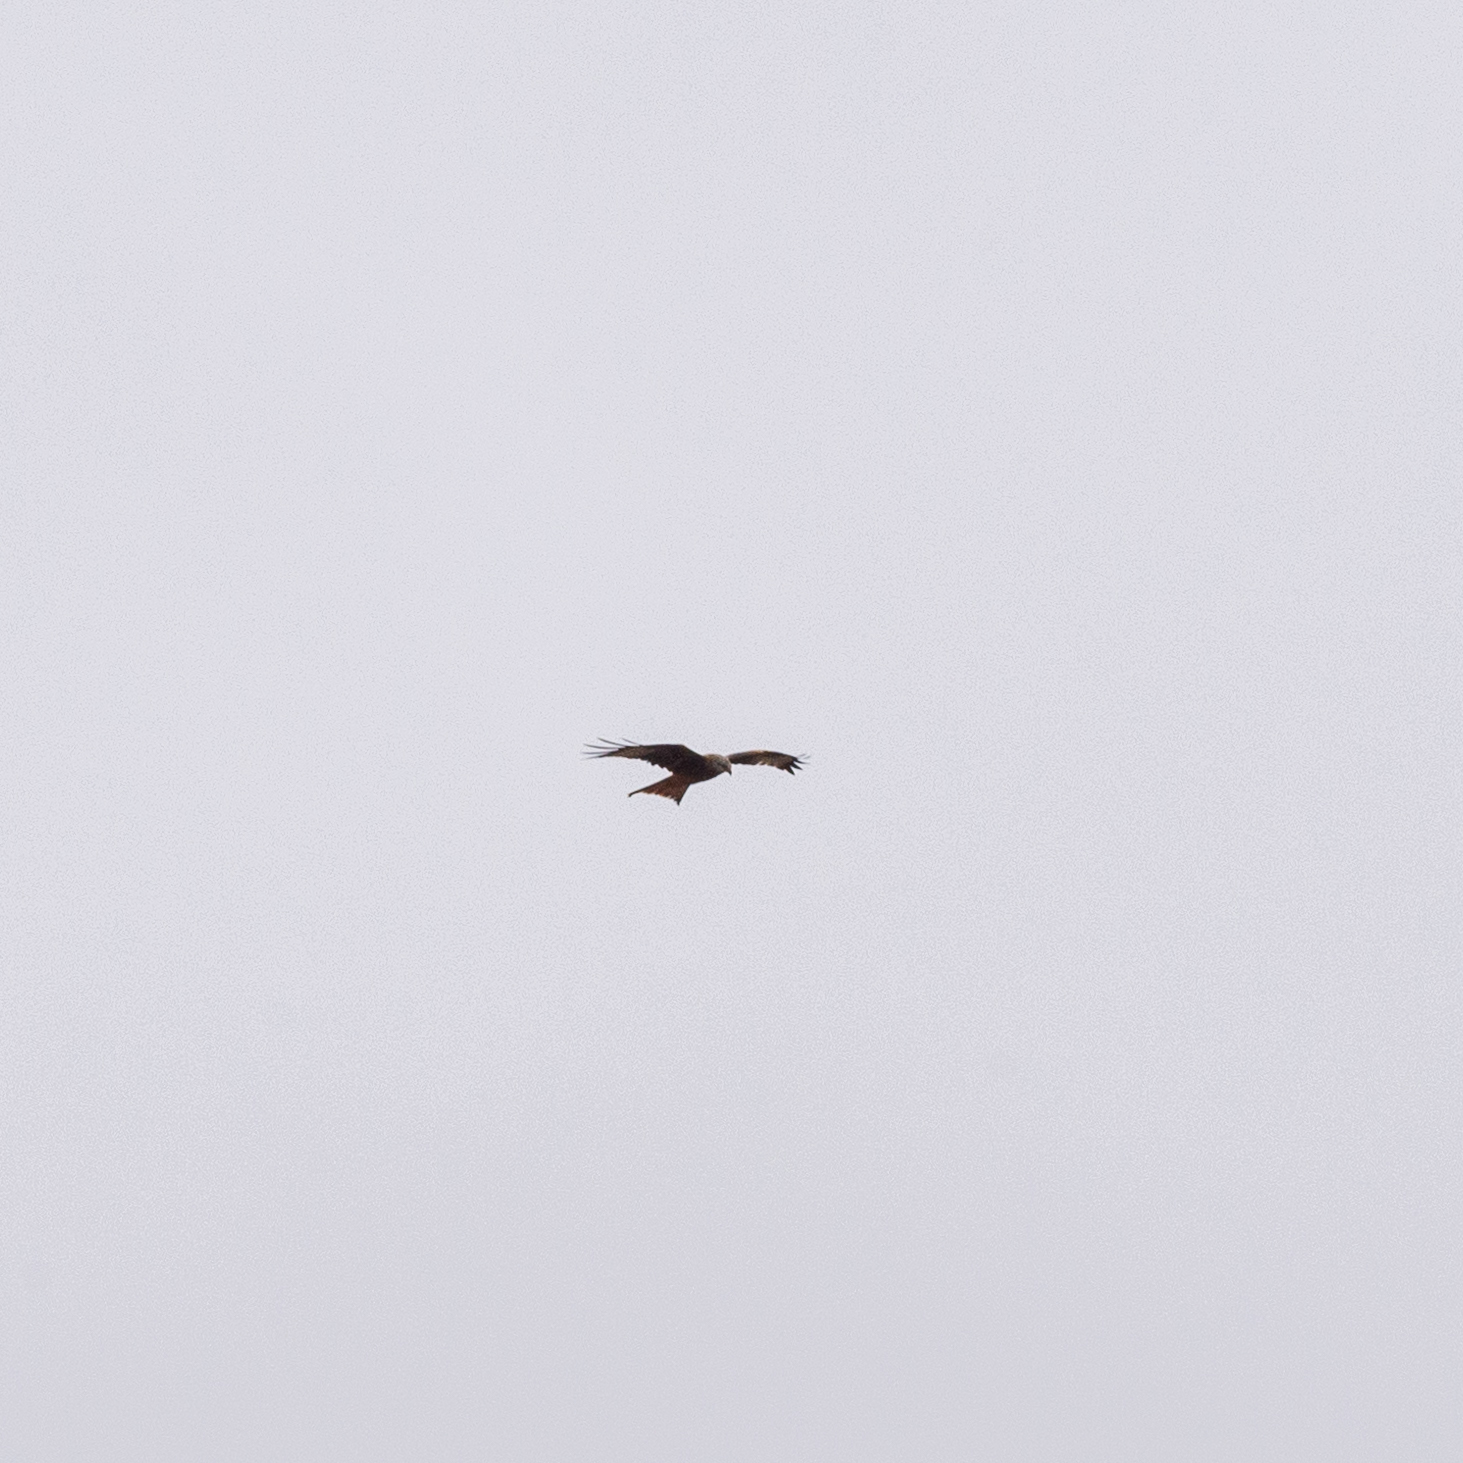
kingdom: Animalia
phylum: Chordata
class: Aves
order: Accipitriformes
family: Accipitridae
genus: Milvus
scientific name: Milvus milvus
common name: Red kite
